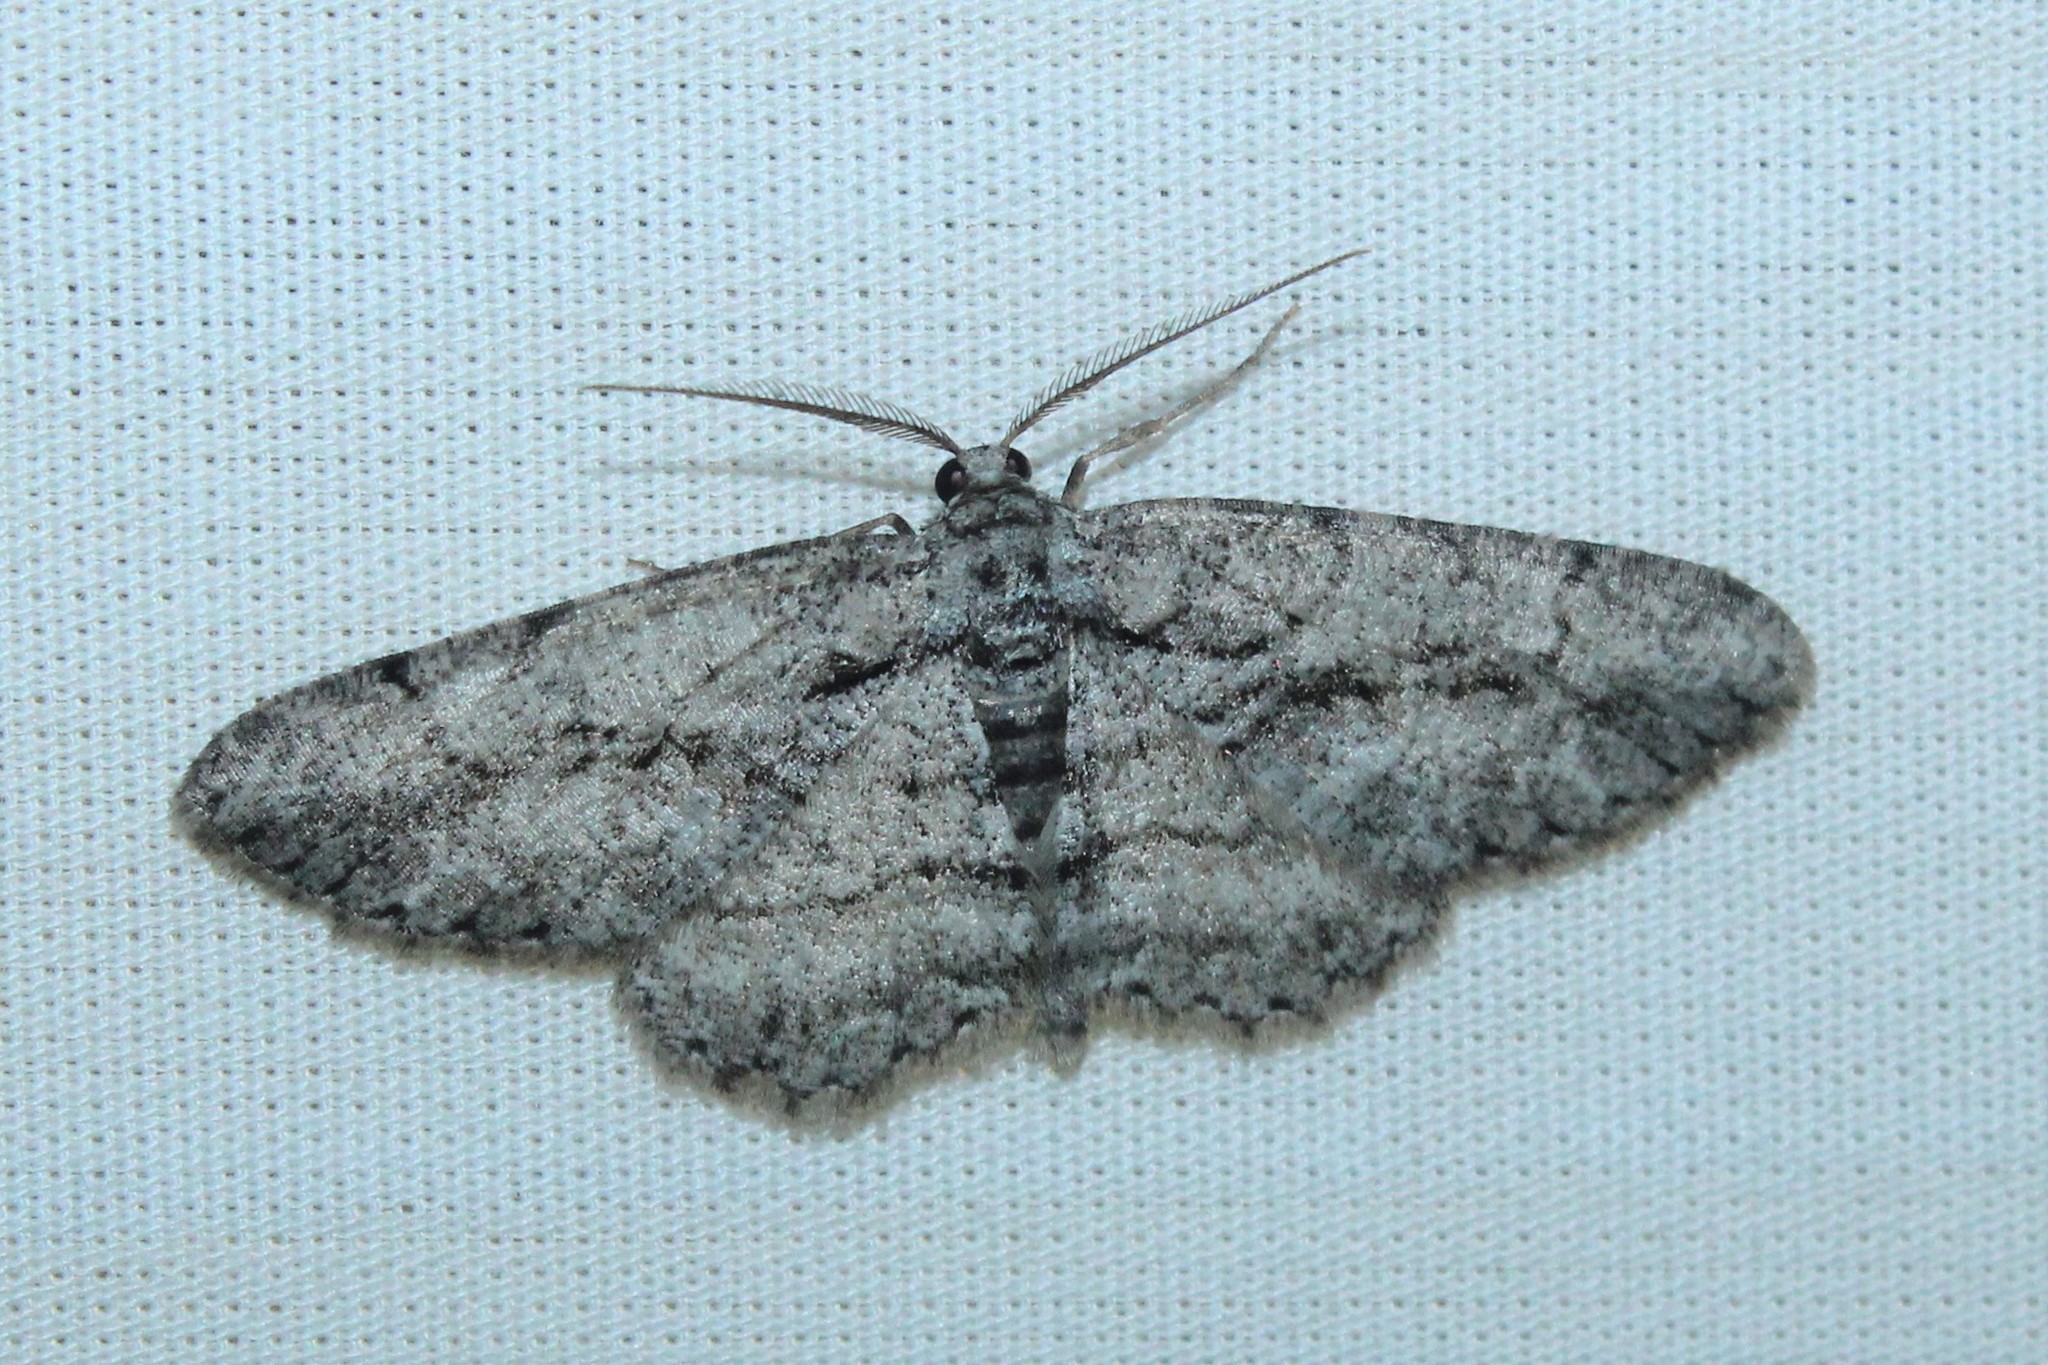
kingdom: Animalia
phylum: Arthropoda
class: Insecta
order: Lepidoptera
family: Geometridae
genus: Anavitrinella
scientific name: Anavitrinella pampinaria
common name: Common gray
